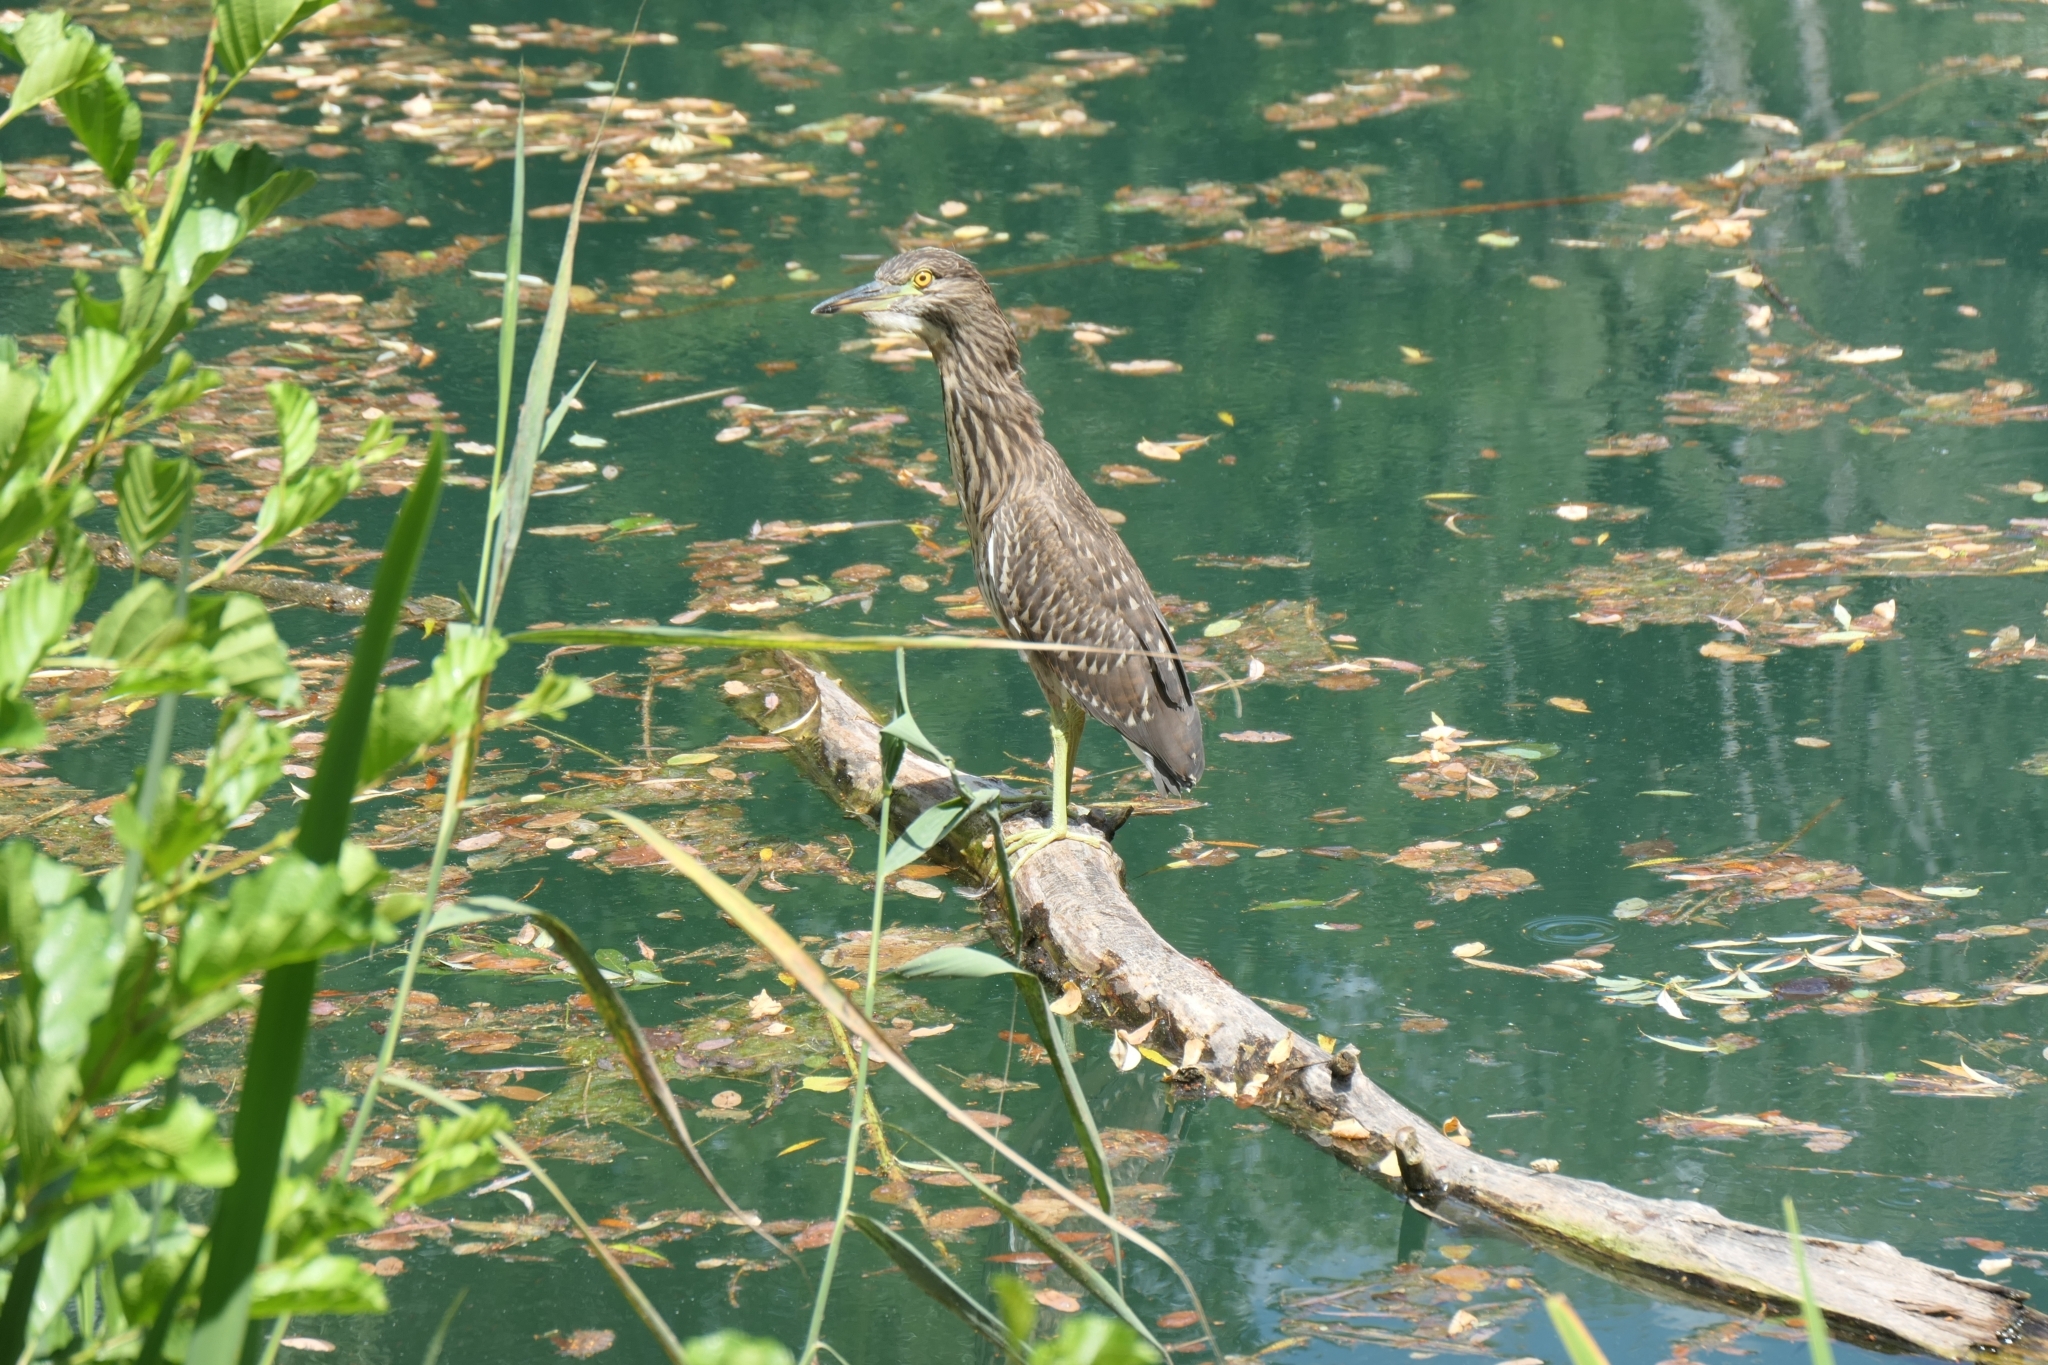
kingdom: Animalia
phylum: Chordata
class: Aves
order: Pelecaniformes
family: Ardeidae
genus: Nycticorax
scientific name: Nycticorax nycticorax
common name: Black-crowned night heron
